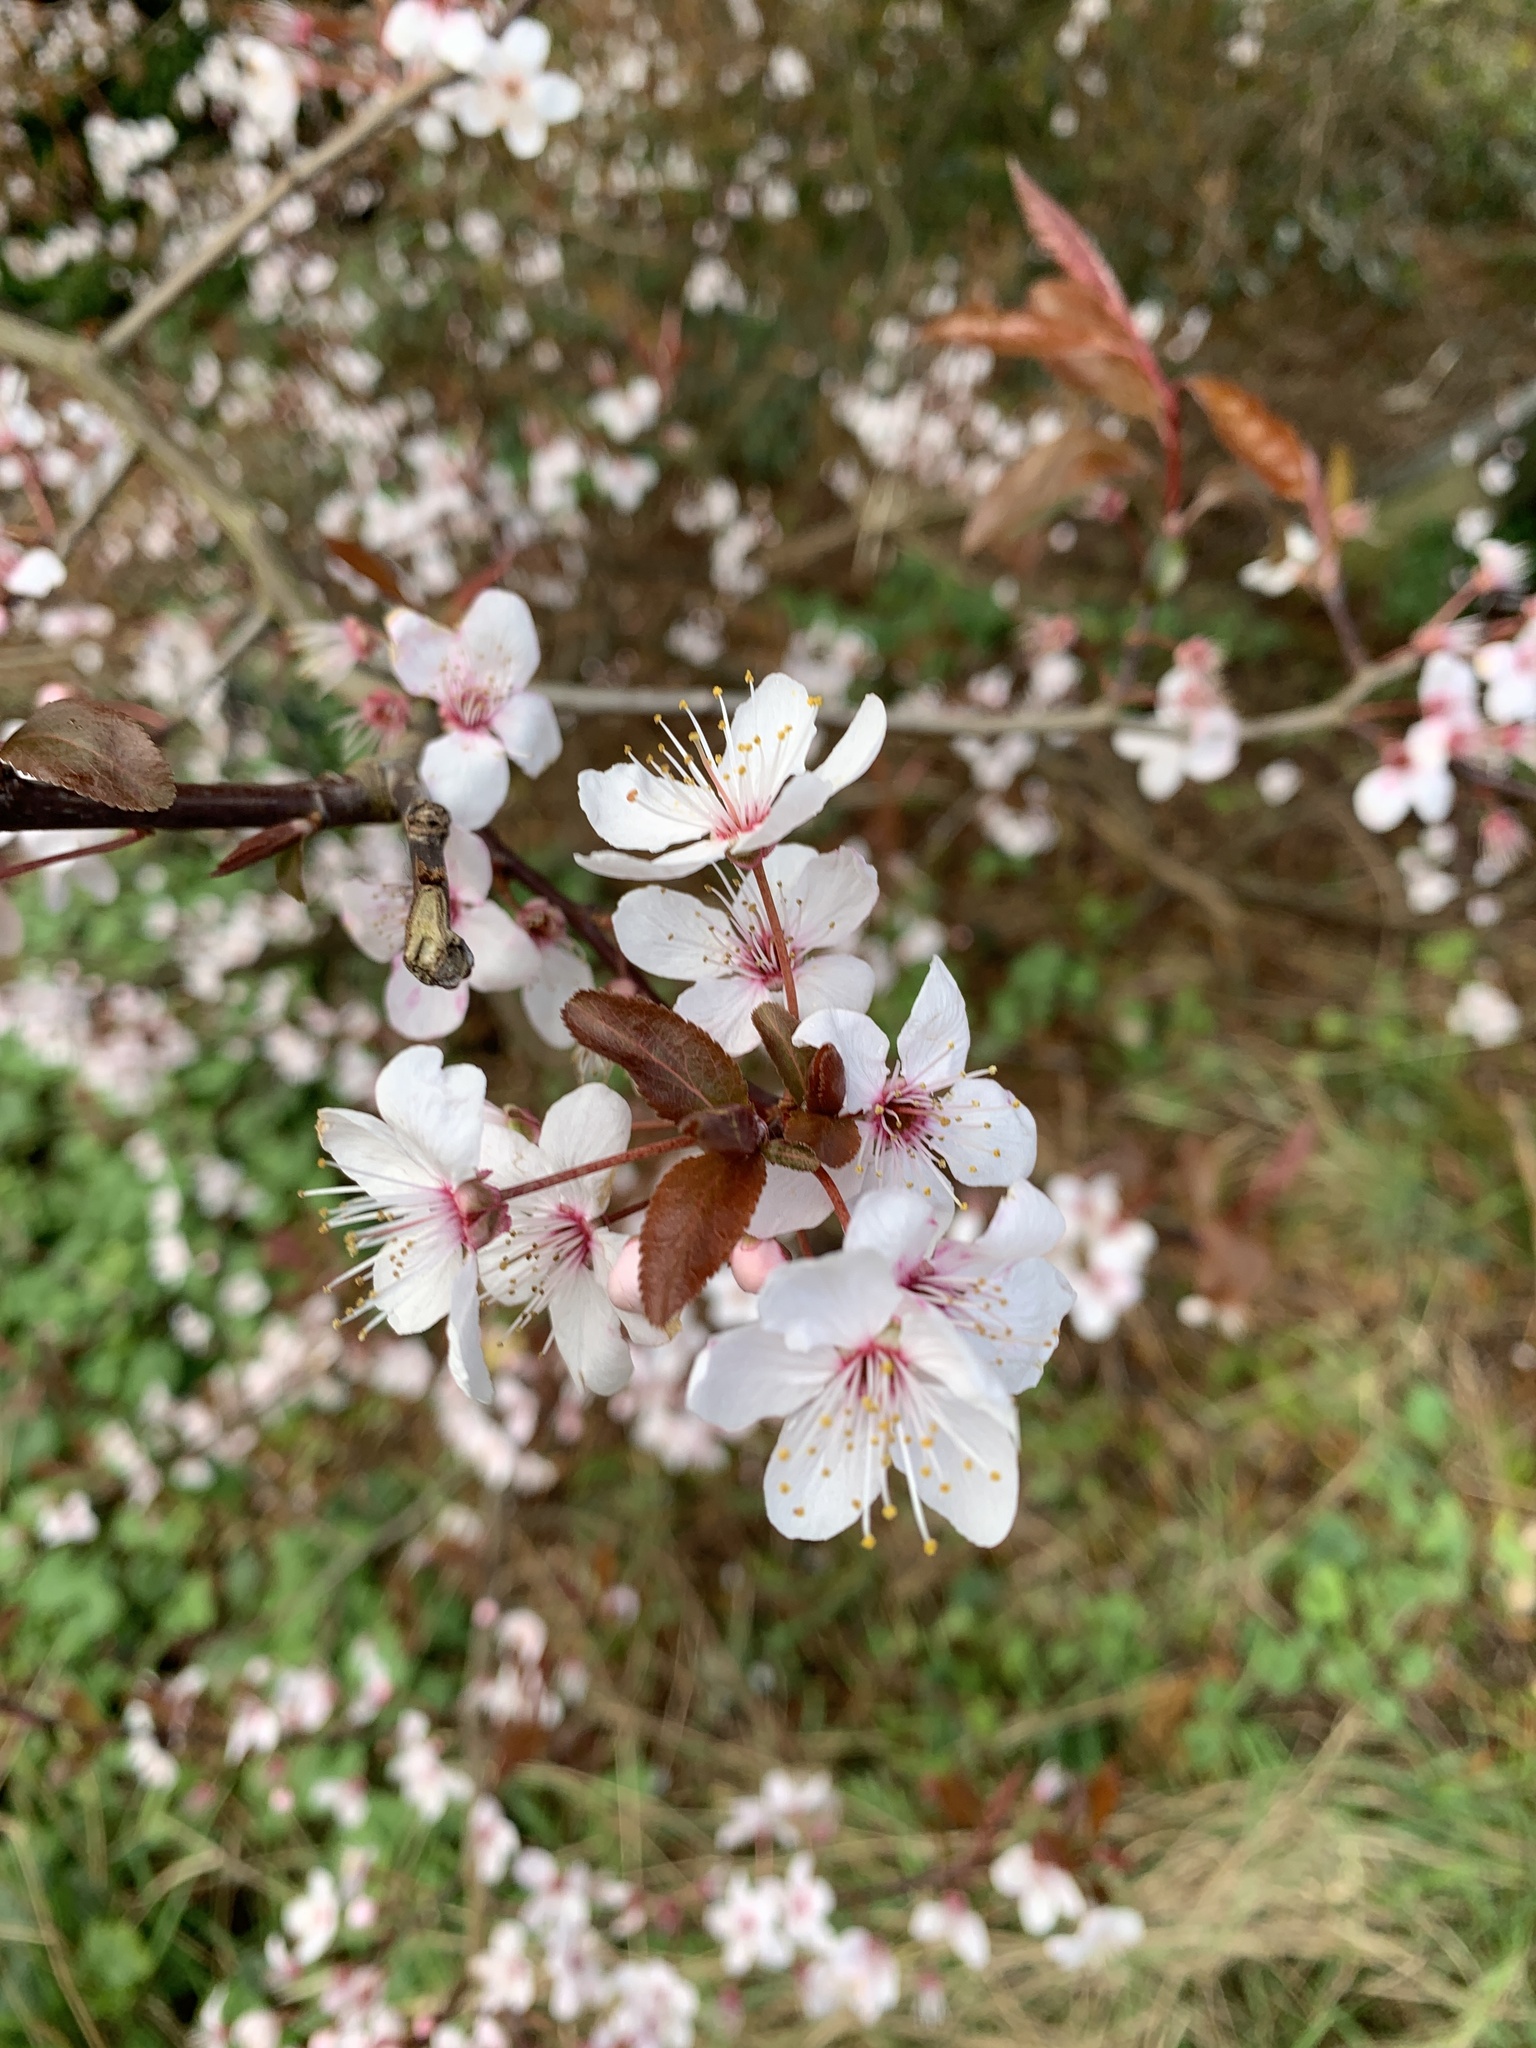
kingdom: Plantae
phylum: Tracheophyta
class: Magnoliopsida
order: Rosales
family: Rosaceae
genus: Prunus
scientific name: Prunus cerasifera
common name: Cherry plum
